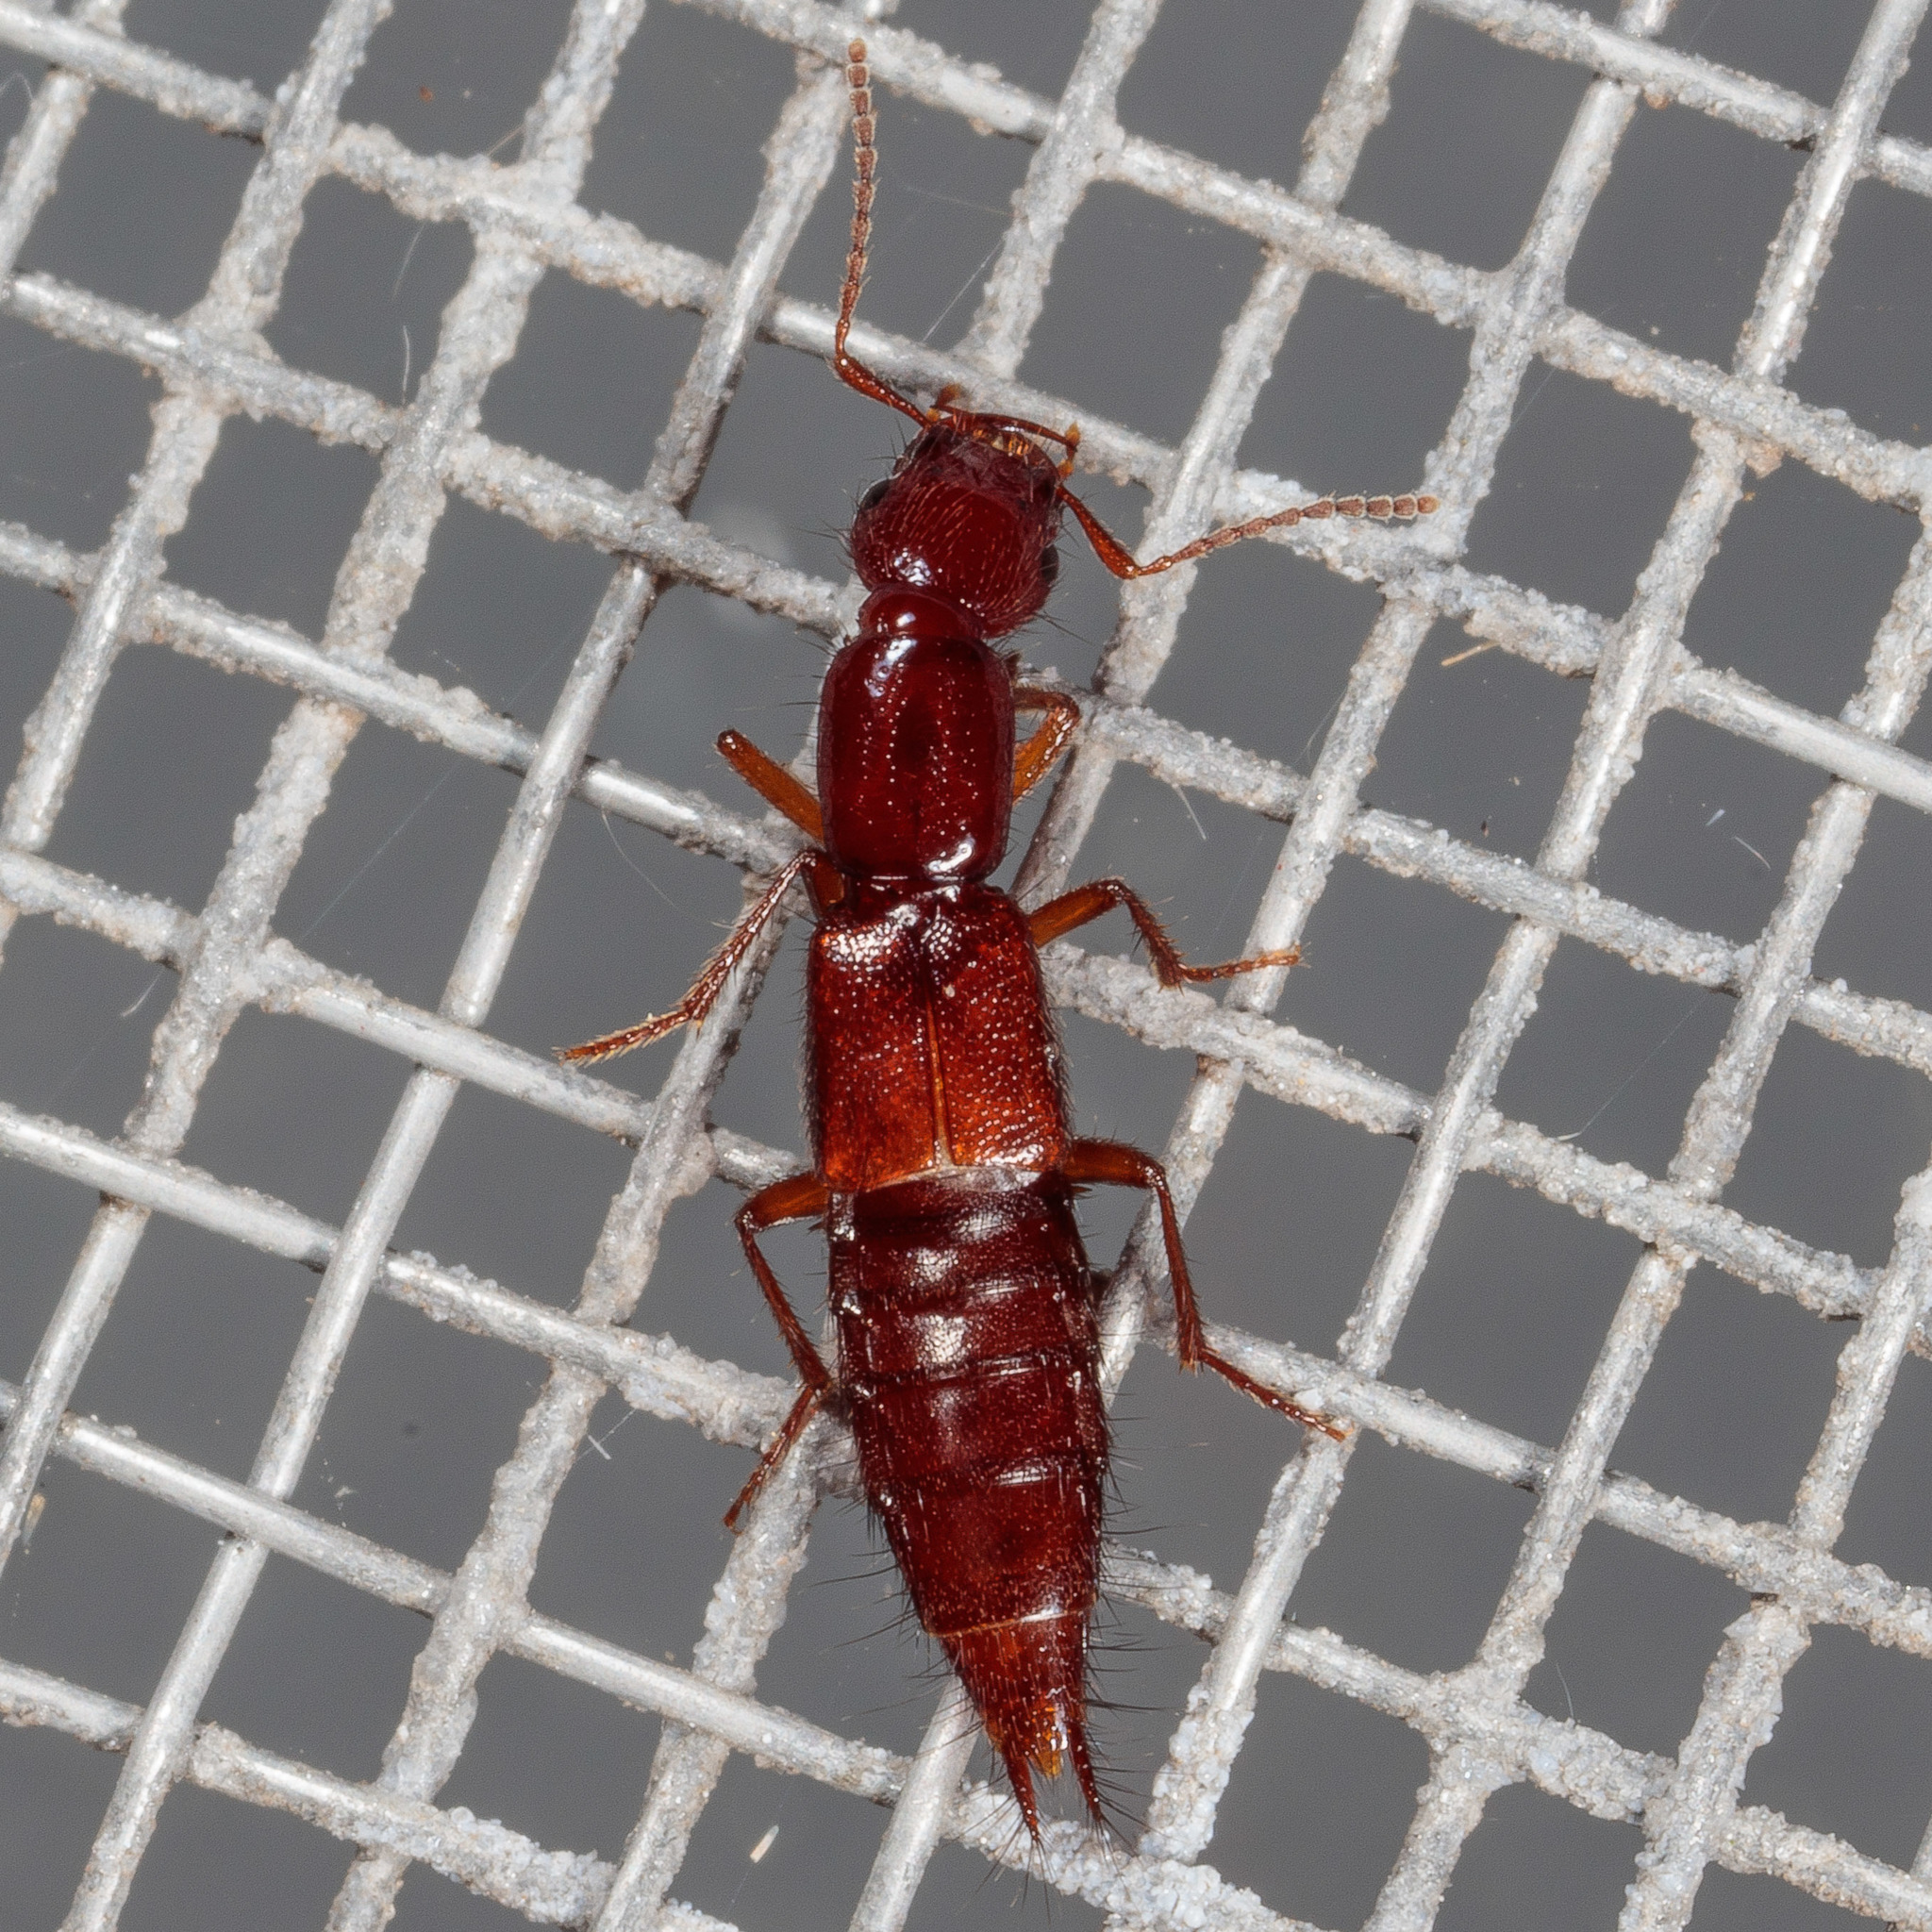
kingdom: Animalia
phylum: Arthropoda
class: Insecta
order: Coleoptera
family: Staphylinidae
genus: Biocrypta
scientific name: Biocrypta prospiciens
